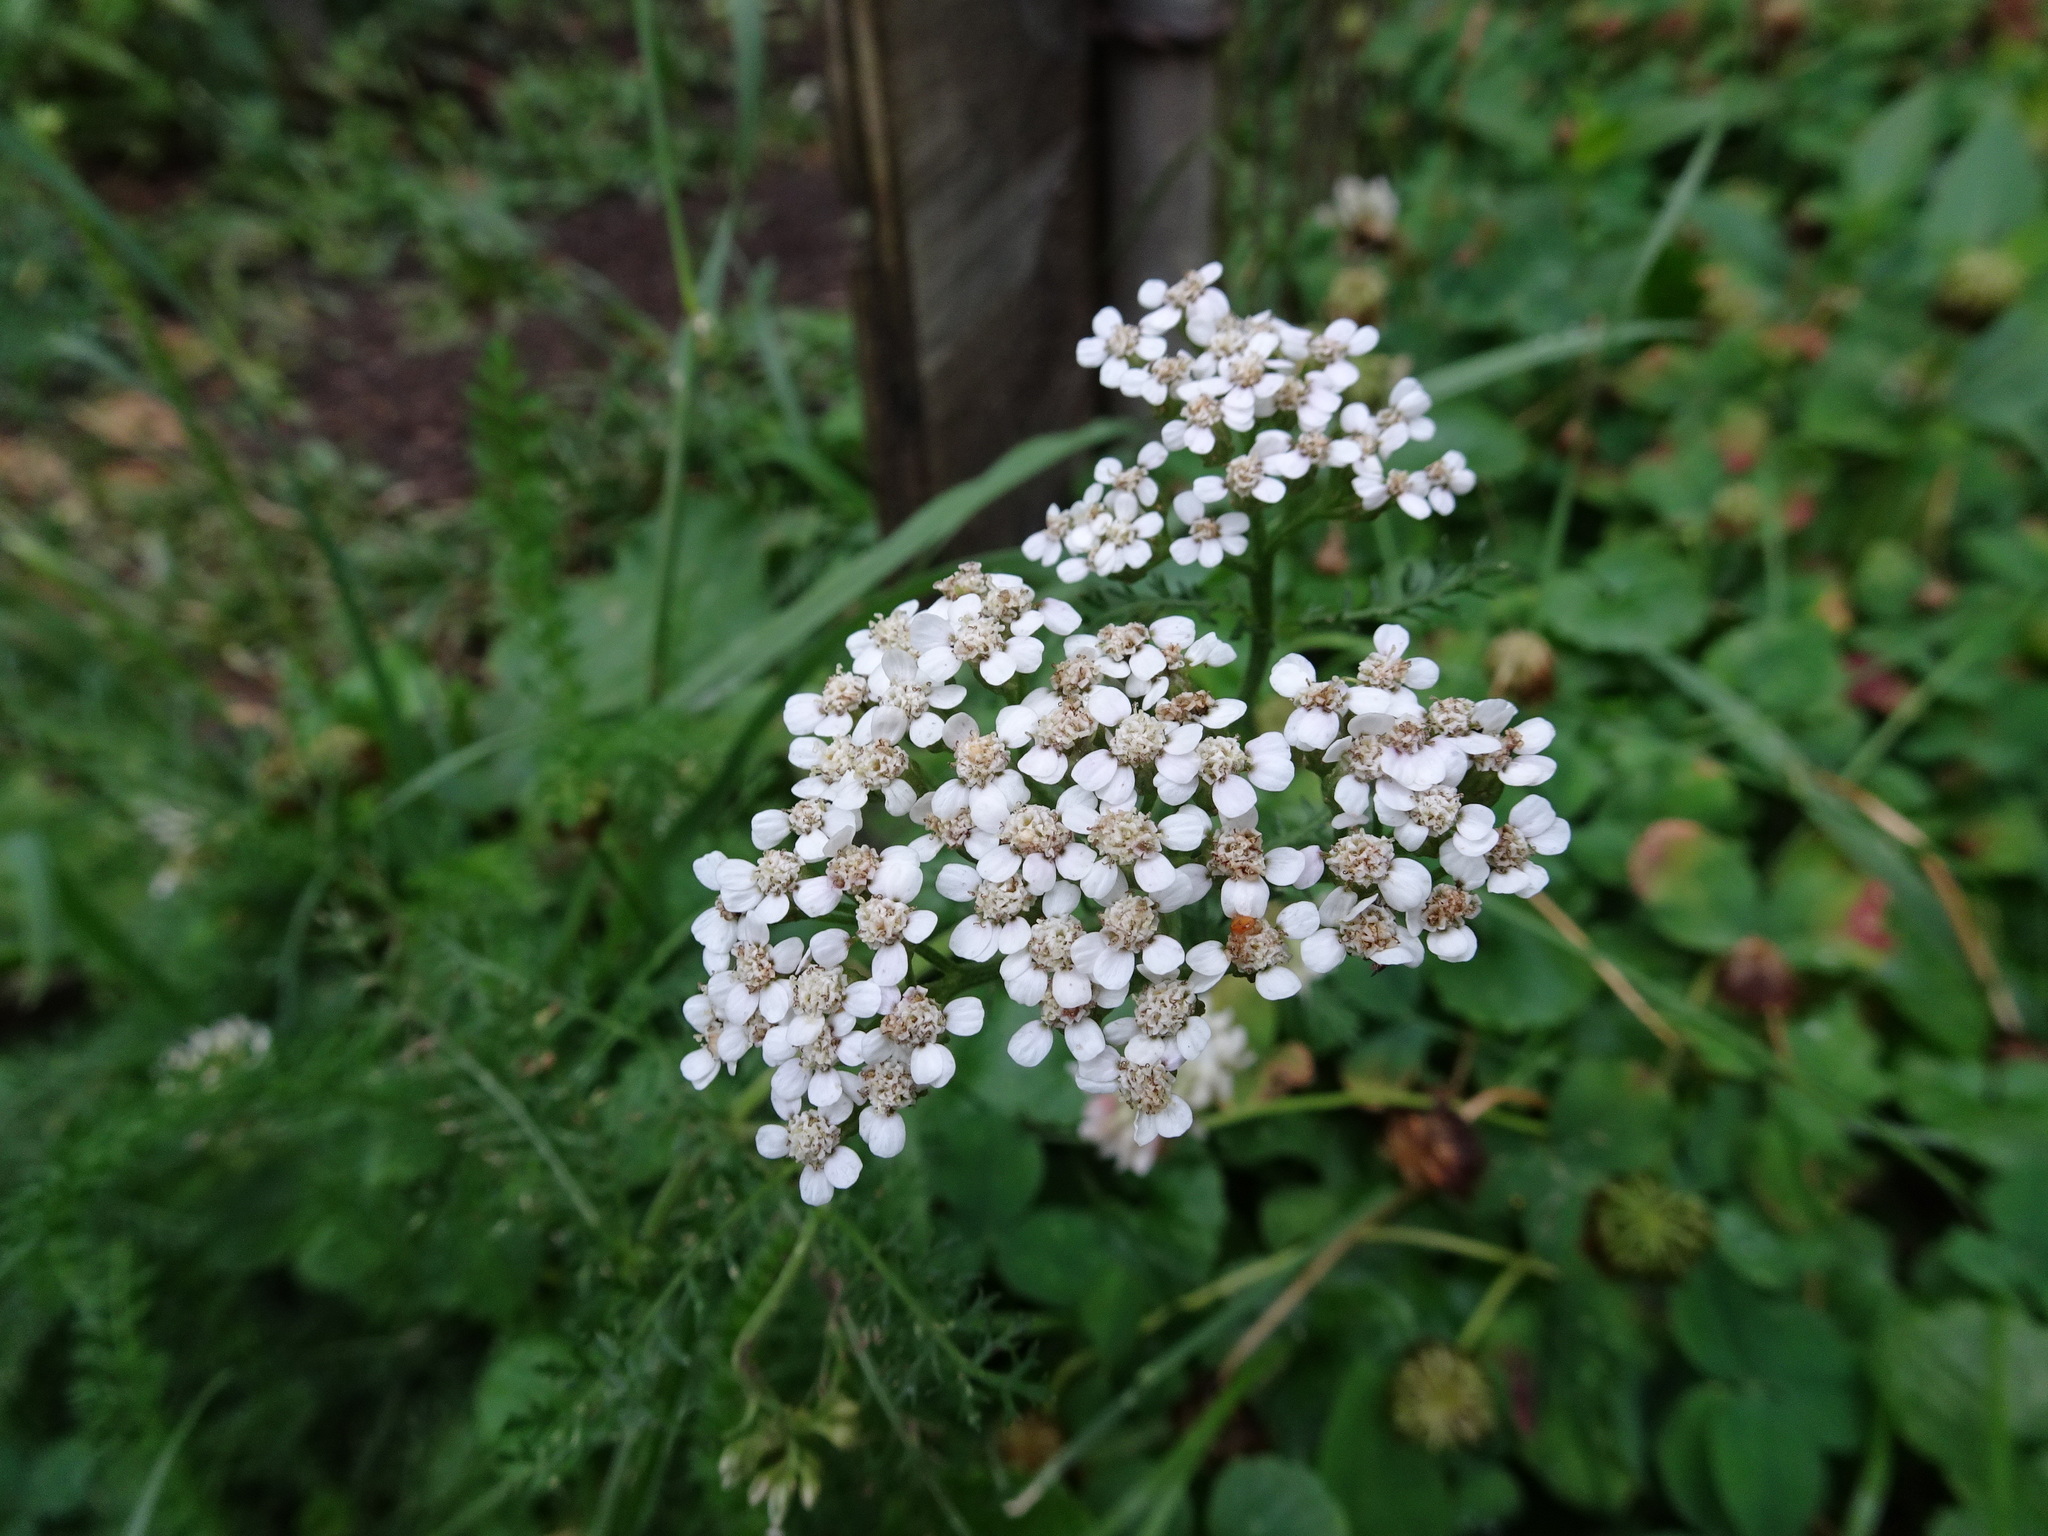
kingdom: Plantae
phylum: Tracheophyta
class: Magnoliopsida
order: Asterales
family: Asteraceae
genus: Achillea
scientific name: Achillea millefolium
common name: Yarrow
